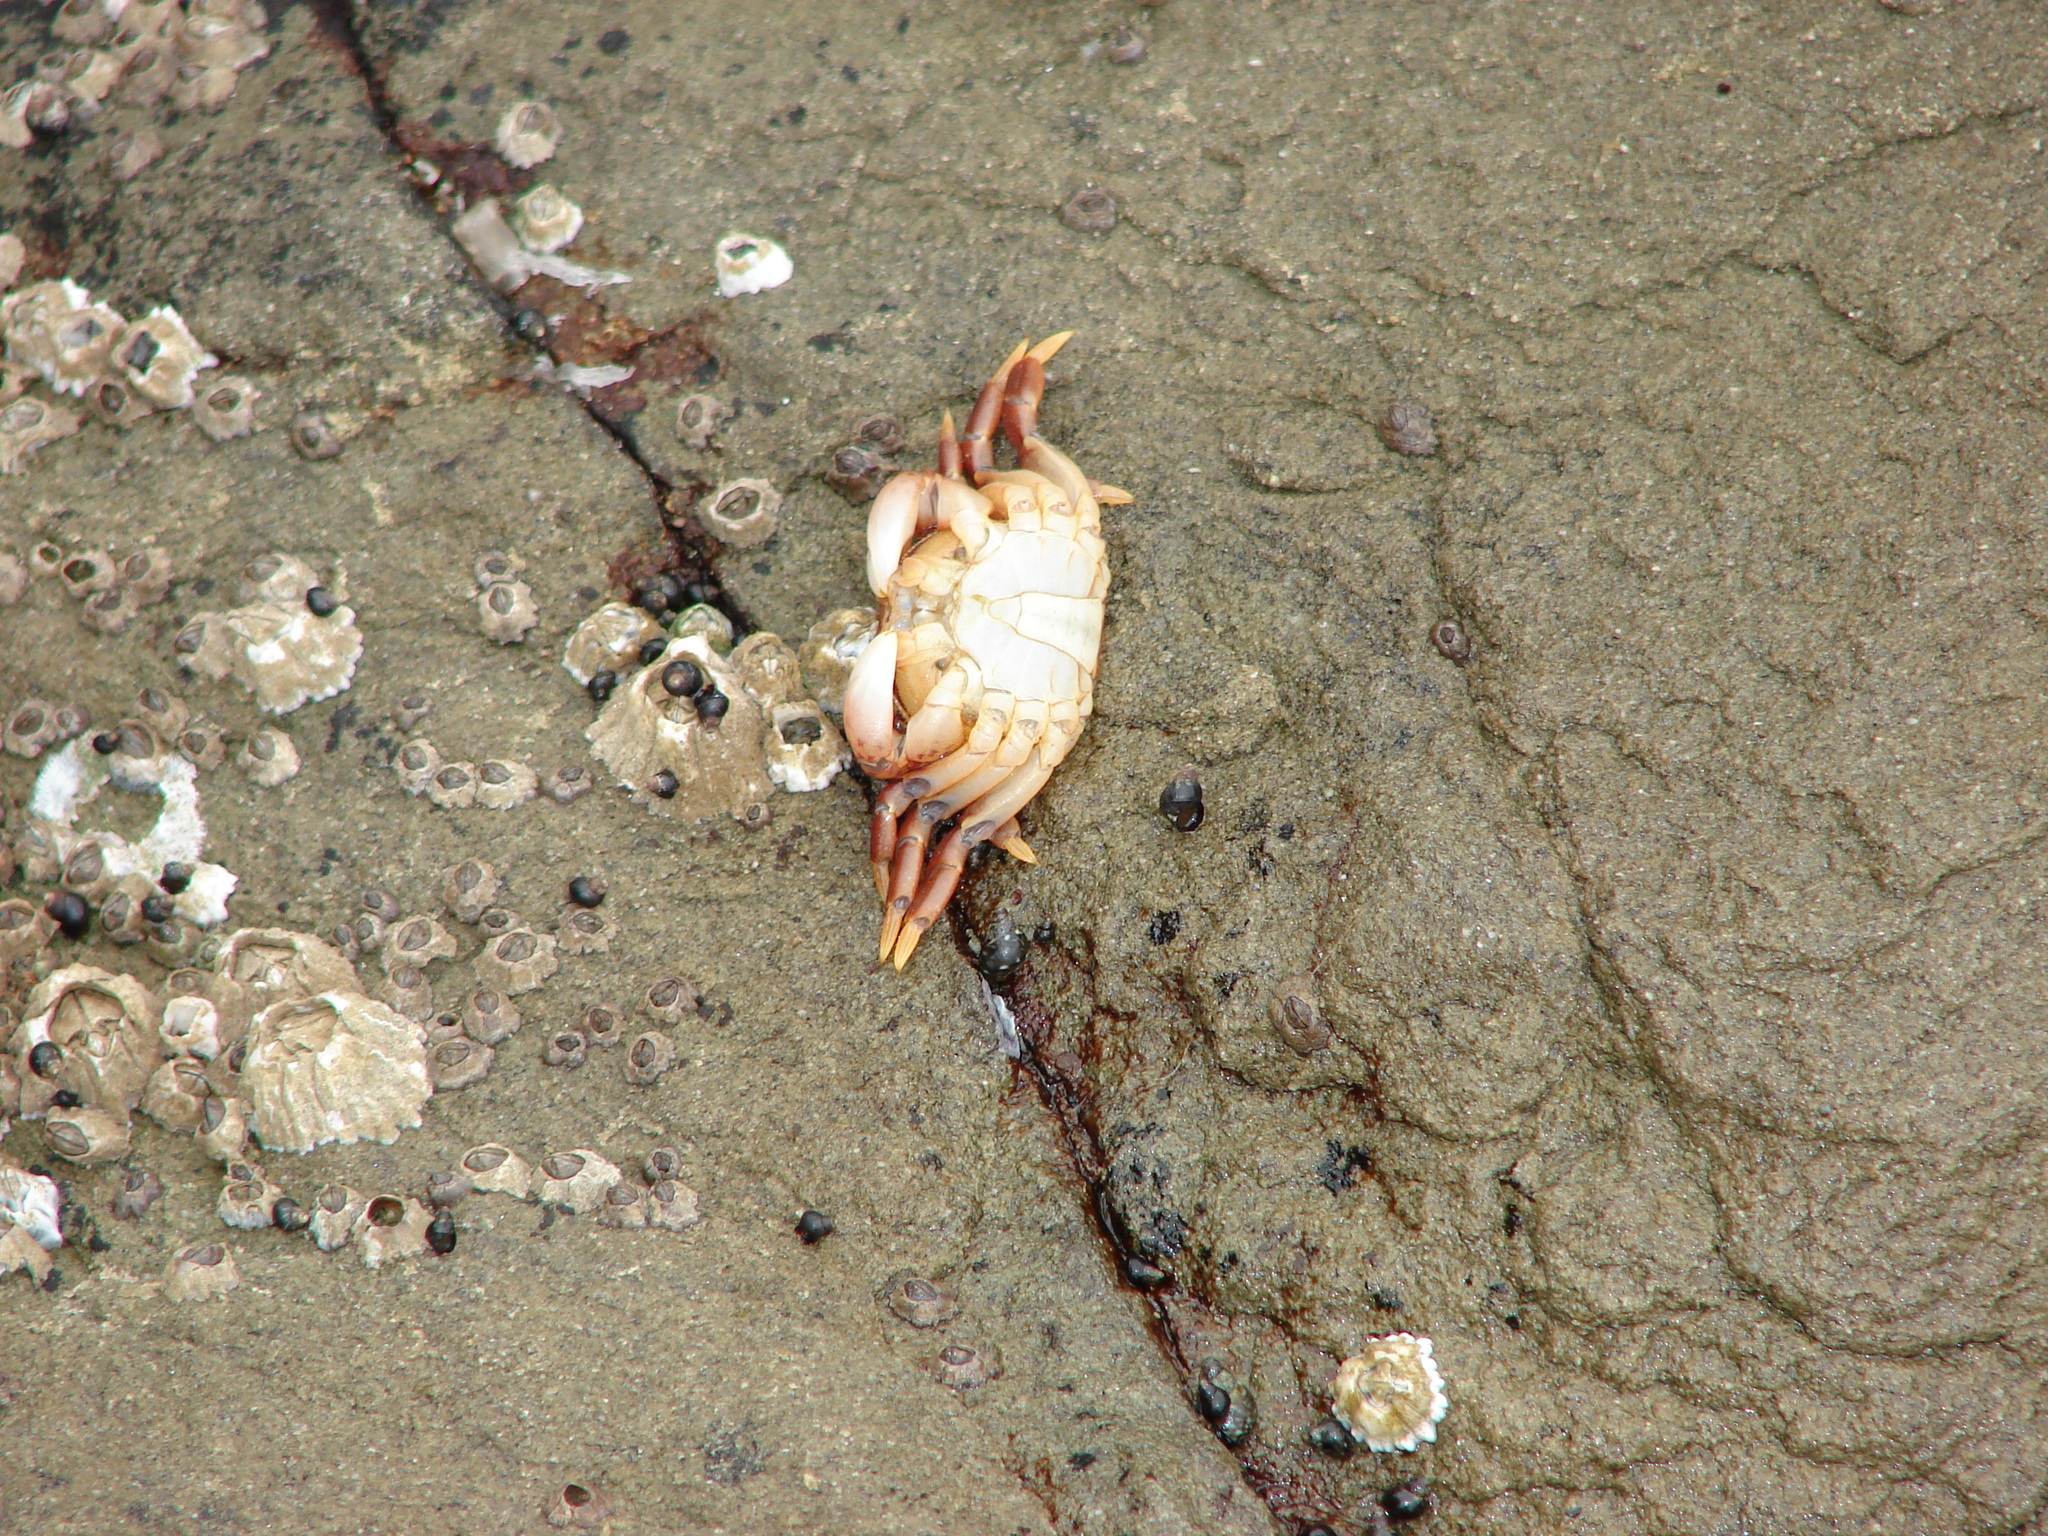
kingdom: Animalia
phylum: Arthropoda
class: Malacostraca
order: Decapoda
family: Varunidae
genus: Hemigrapsus
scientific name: Hemigrapsus nudus
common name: Purple shore crab
